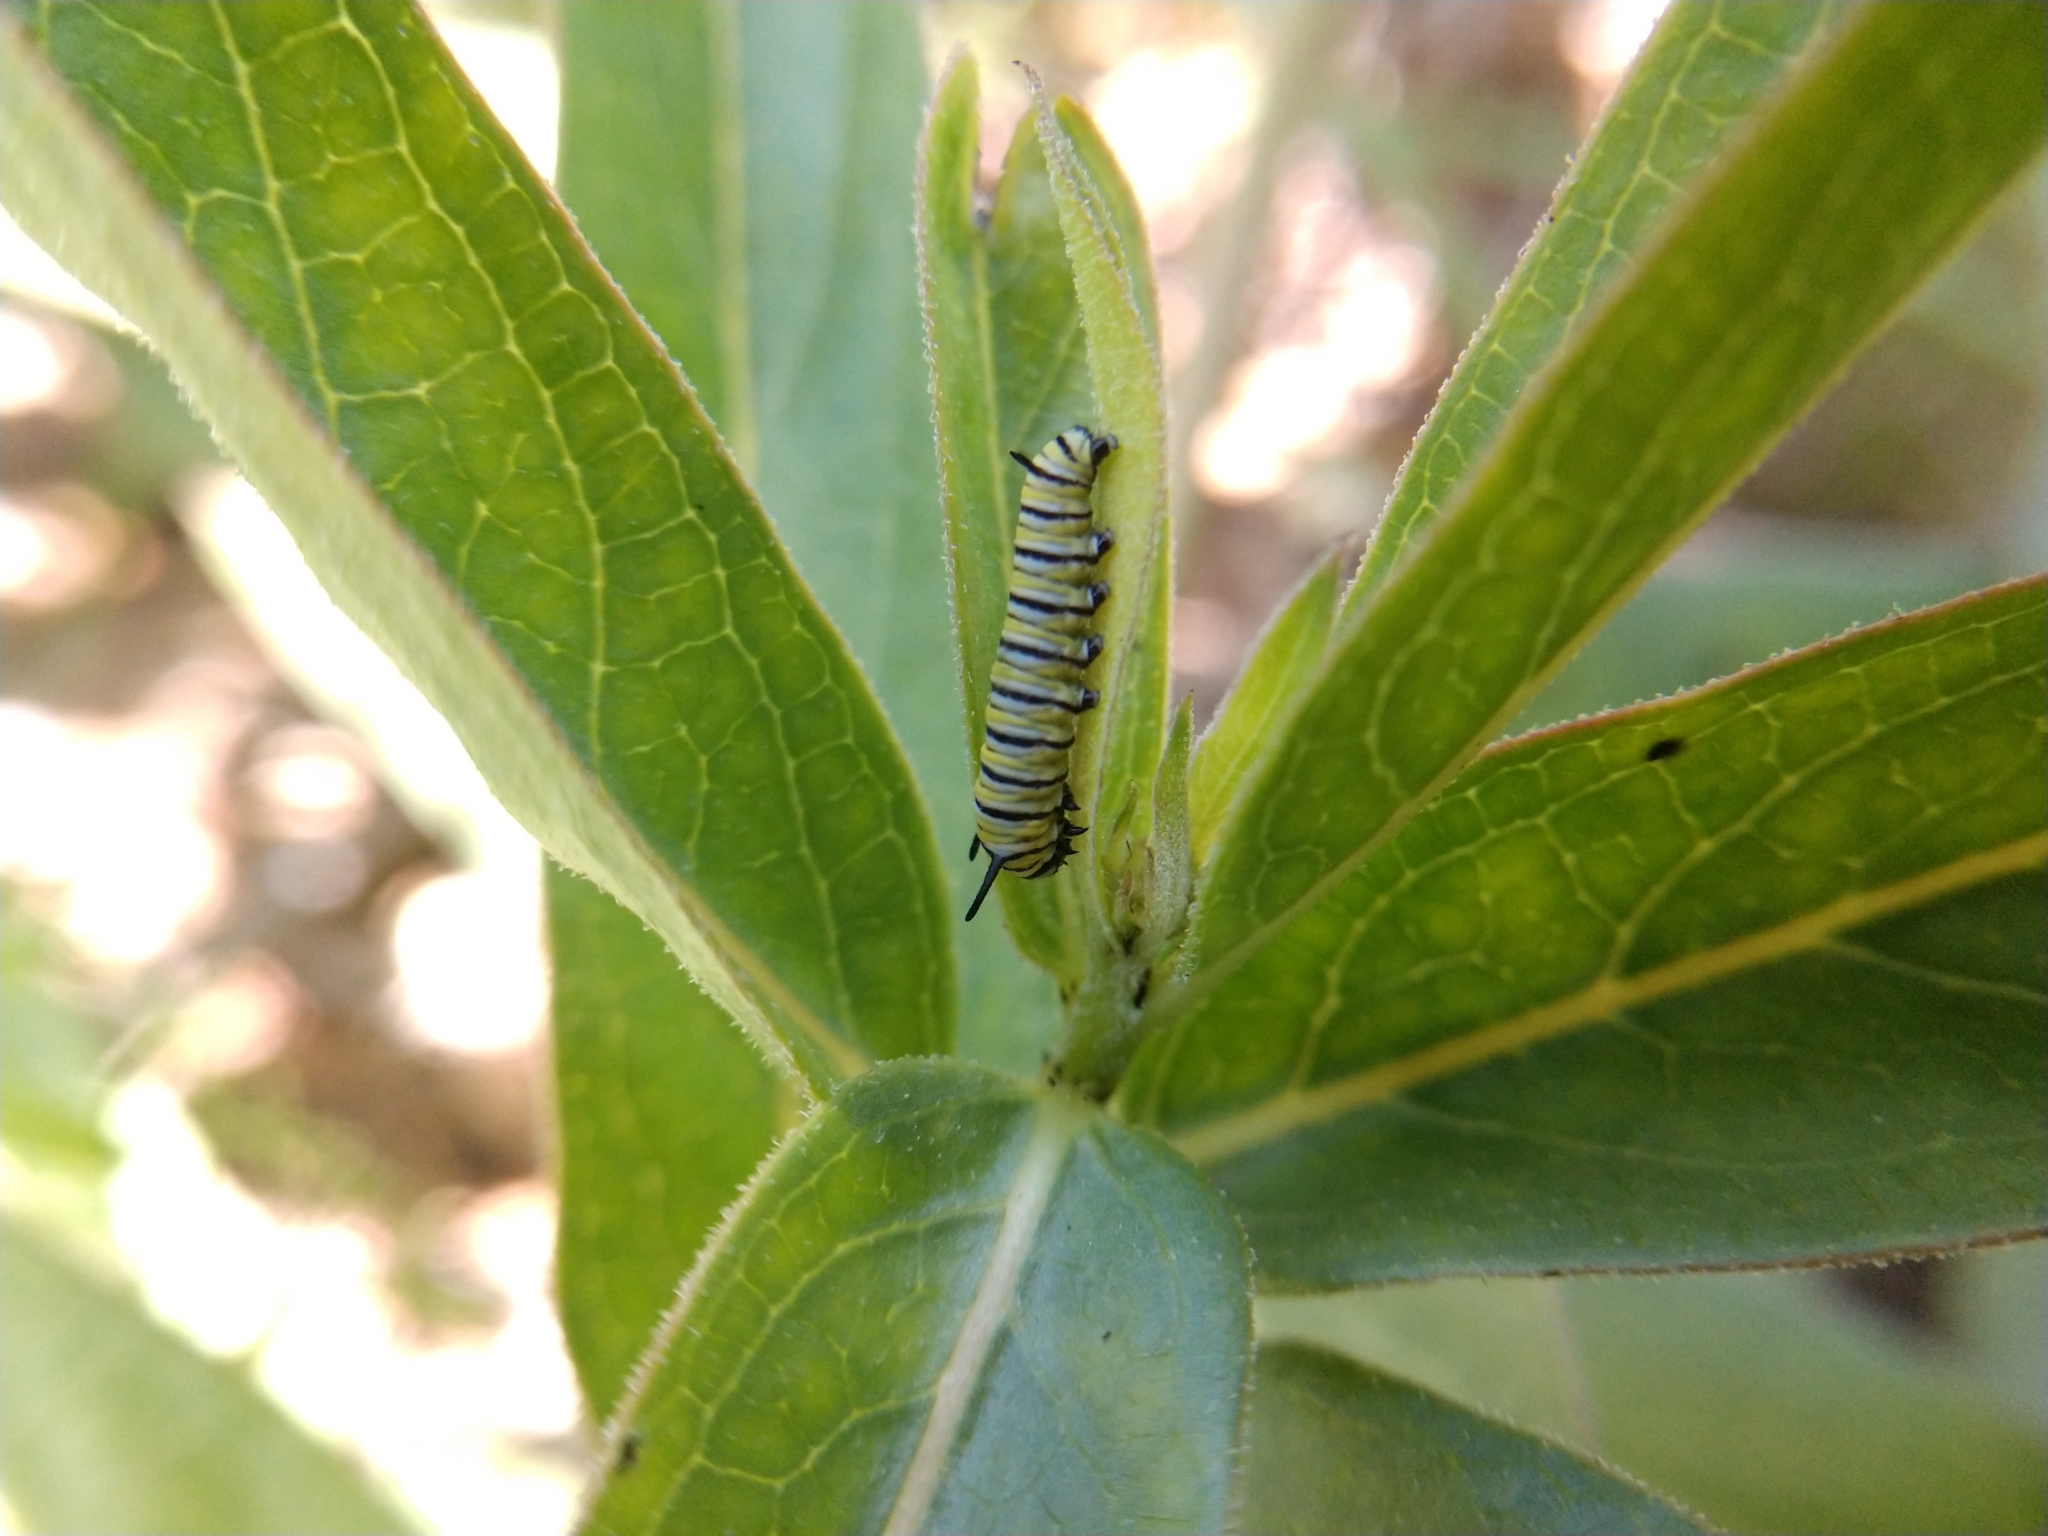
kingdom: Animalia
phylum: Arthropoda
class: Insecta
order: Lepidoptera
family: Nymphalidae
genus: Danaus
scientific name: Danaus plexippus
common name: Monarch
